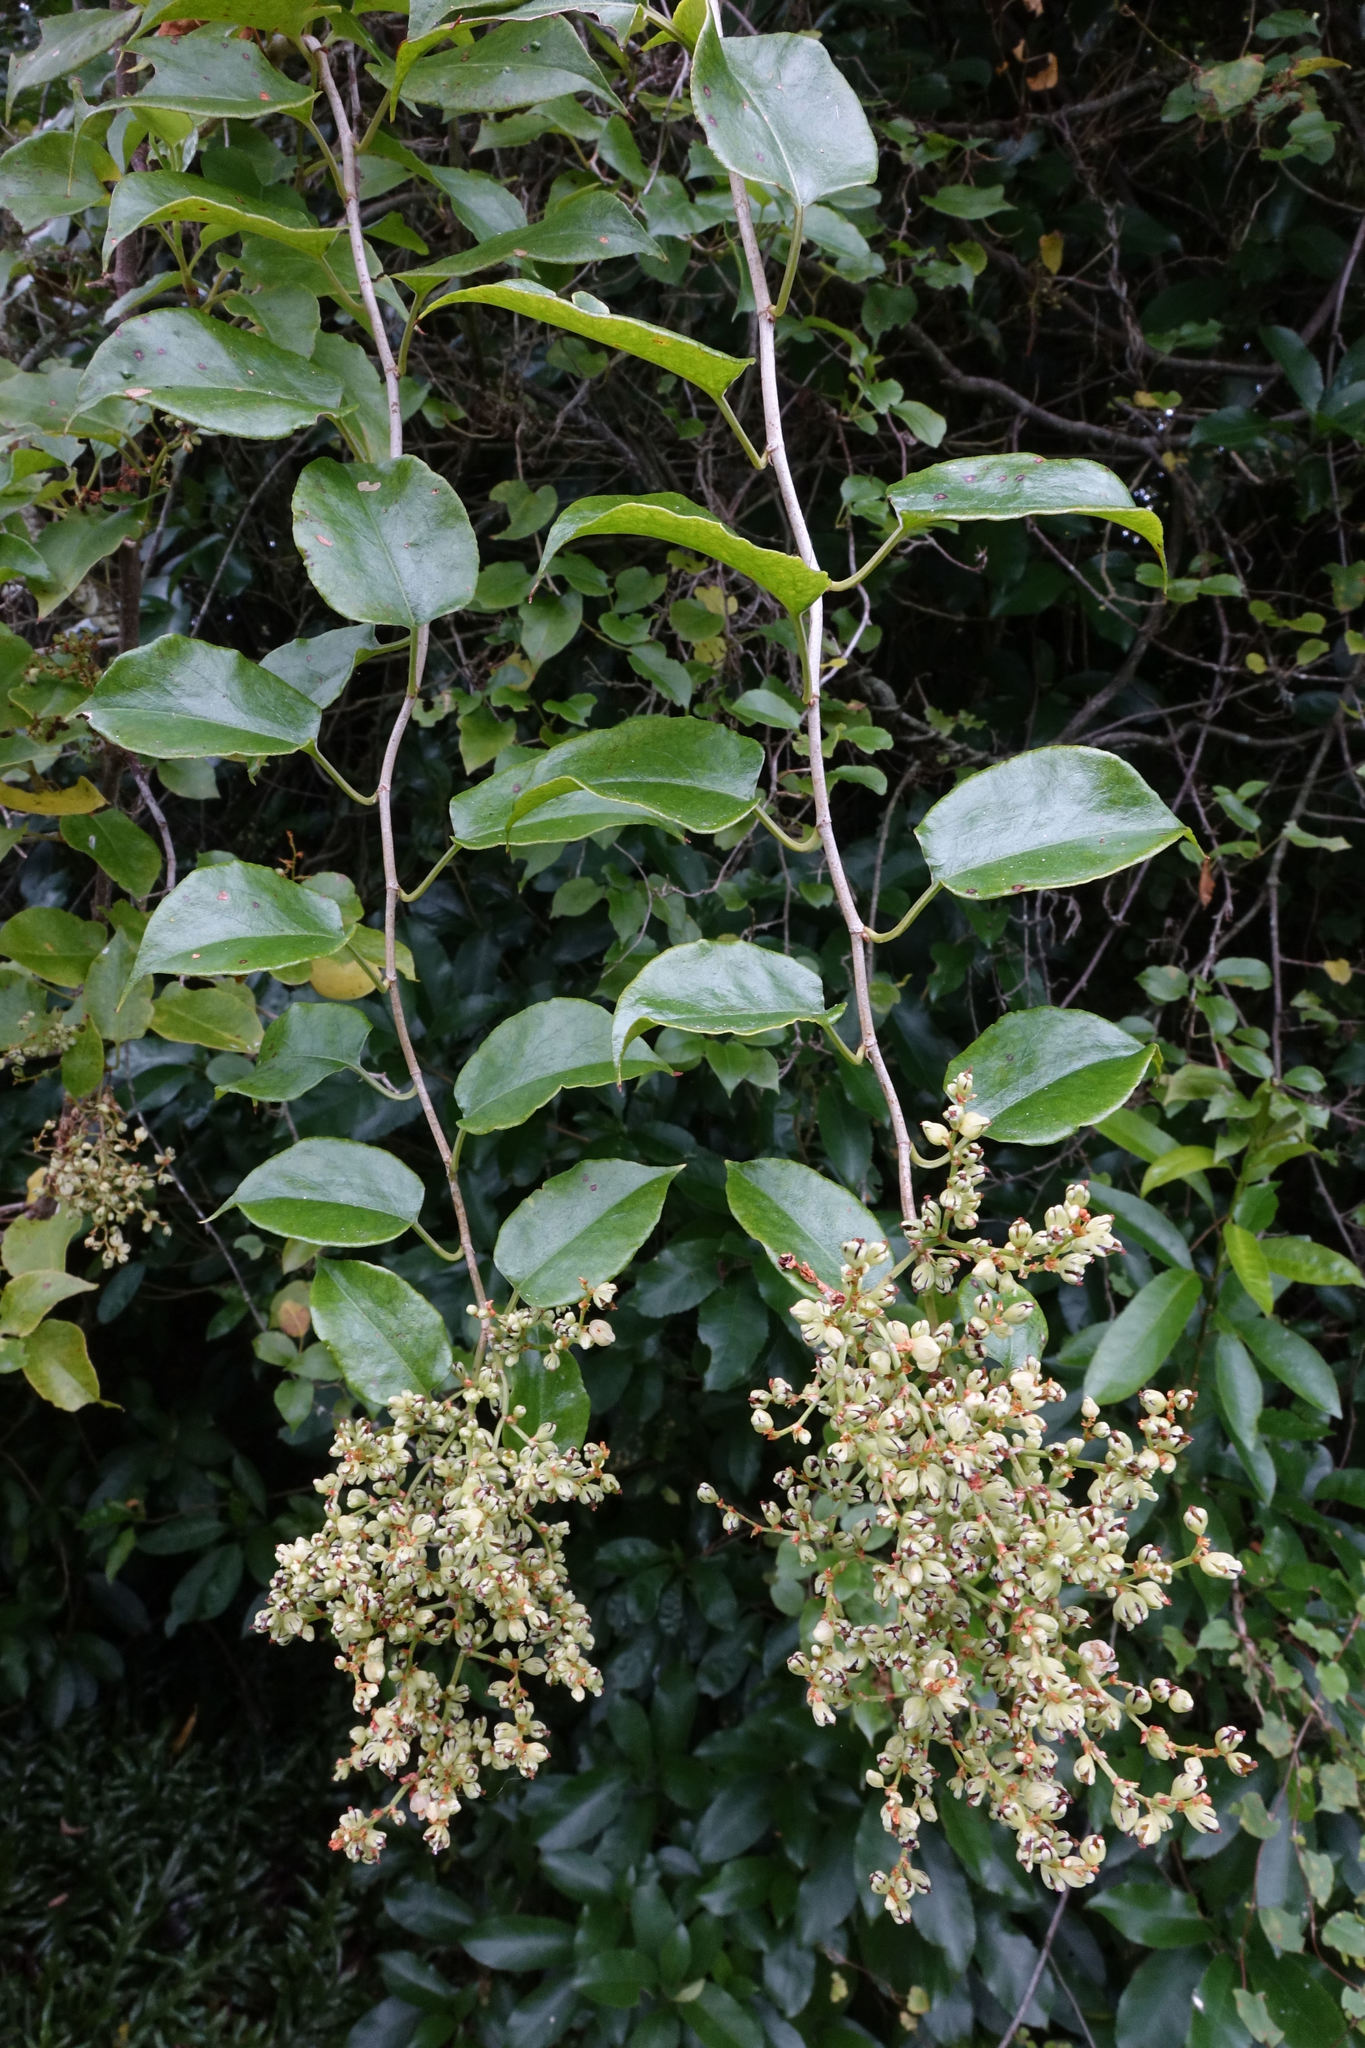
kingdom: Plantae
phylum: Tracheophyta
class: Magnoliopsida
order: Caryophyllales
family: Polygonaceae
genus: Muehlenbeckia
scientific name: Muehlenbeckia australis
